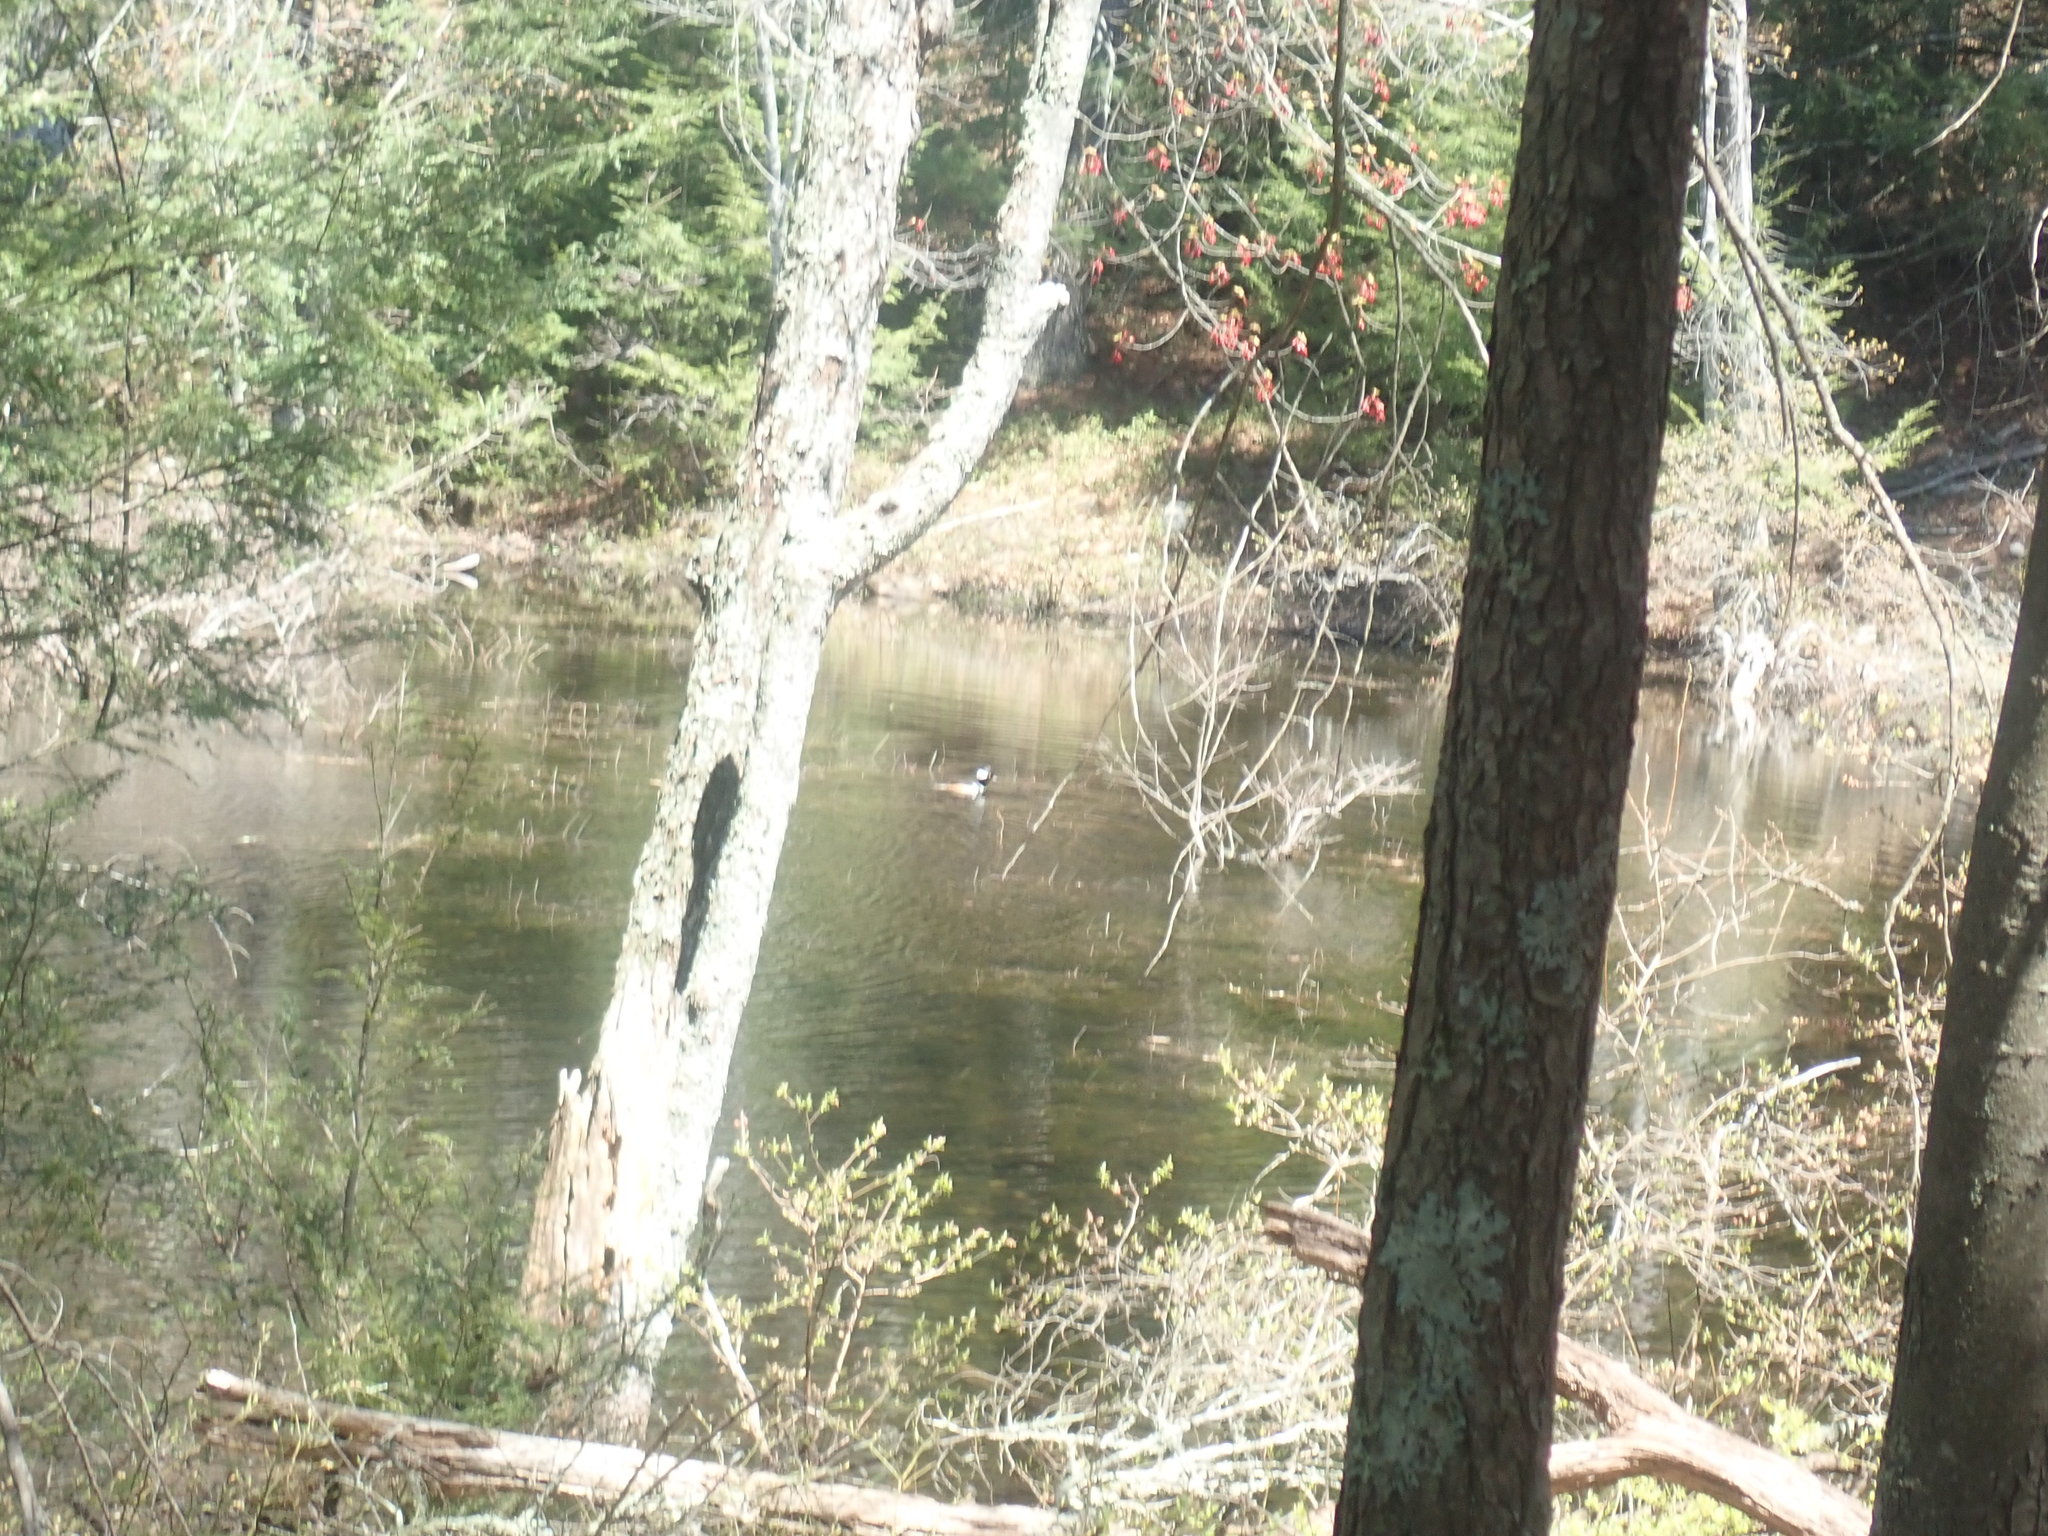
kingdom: Animalia
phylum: Chordata
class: Aves
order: Anseriformes
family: Anatidae
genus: Lophodytes
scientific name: Lophodytes cucullatus
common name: Hooded merganser
